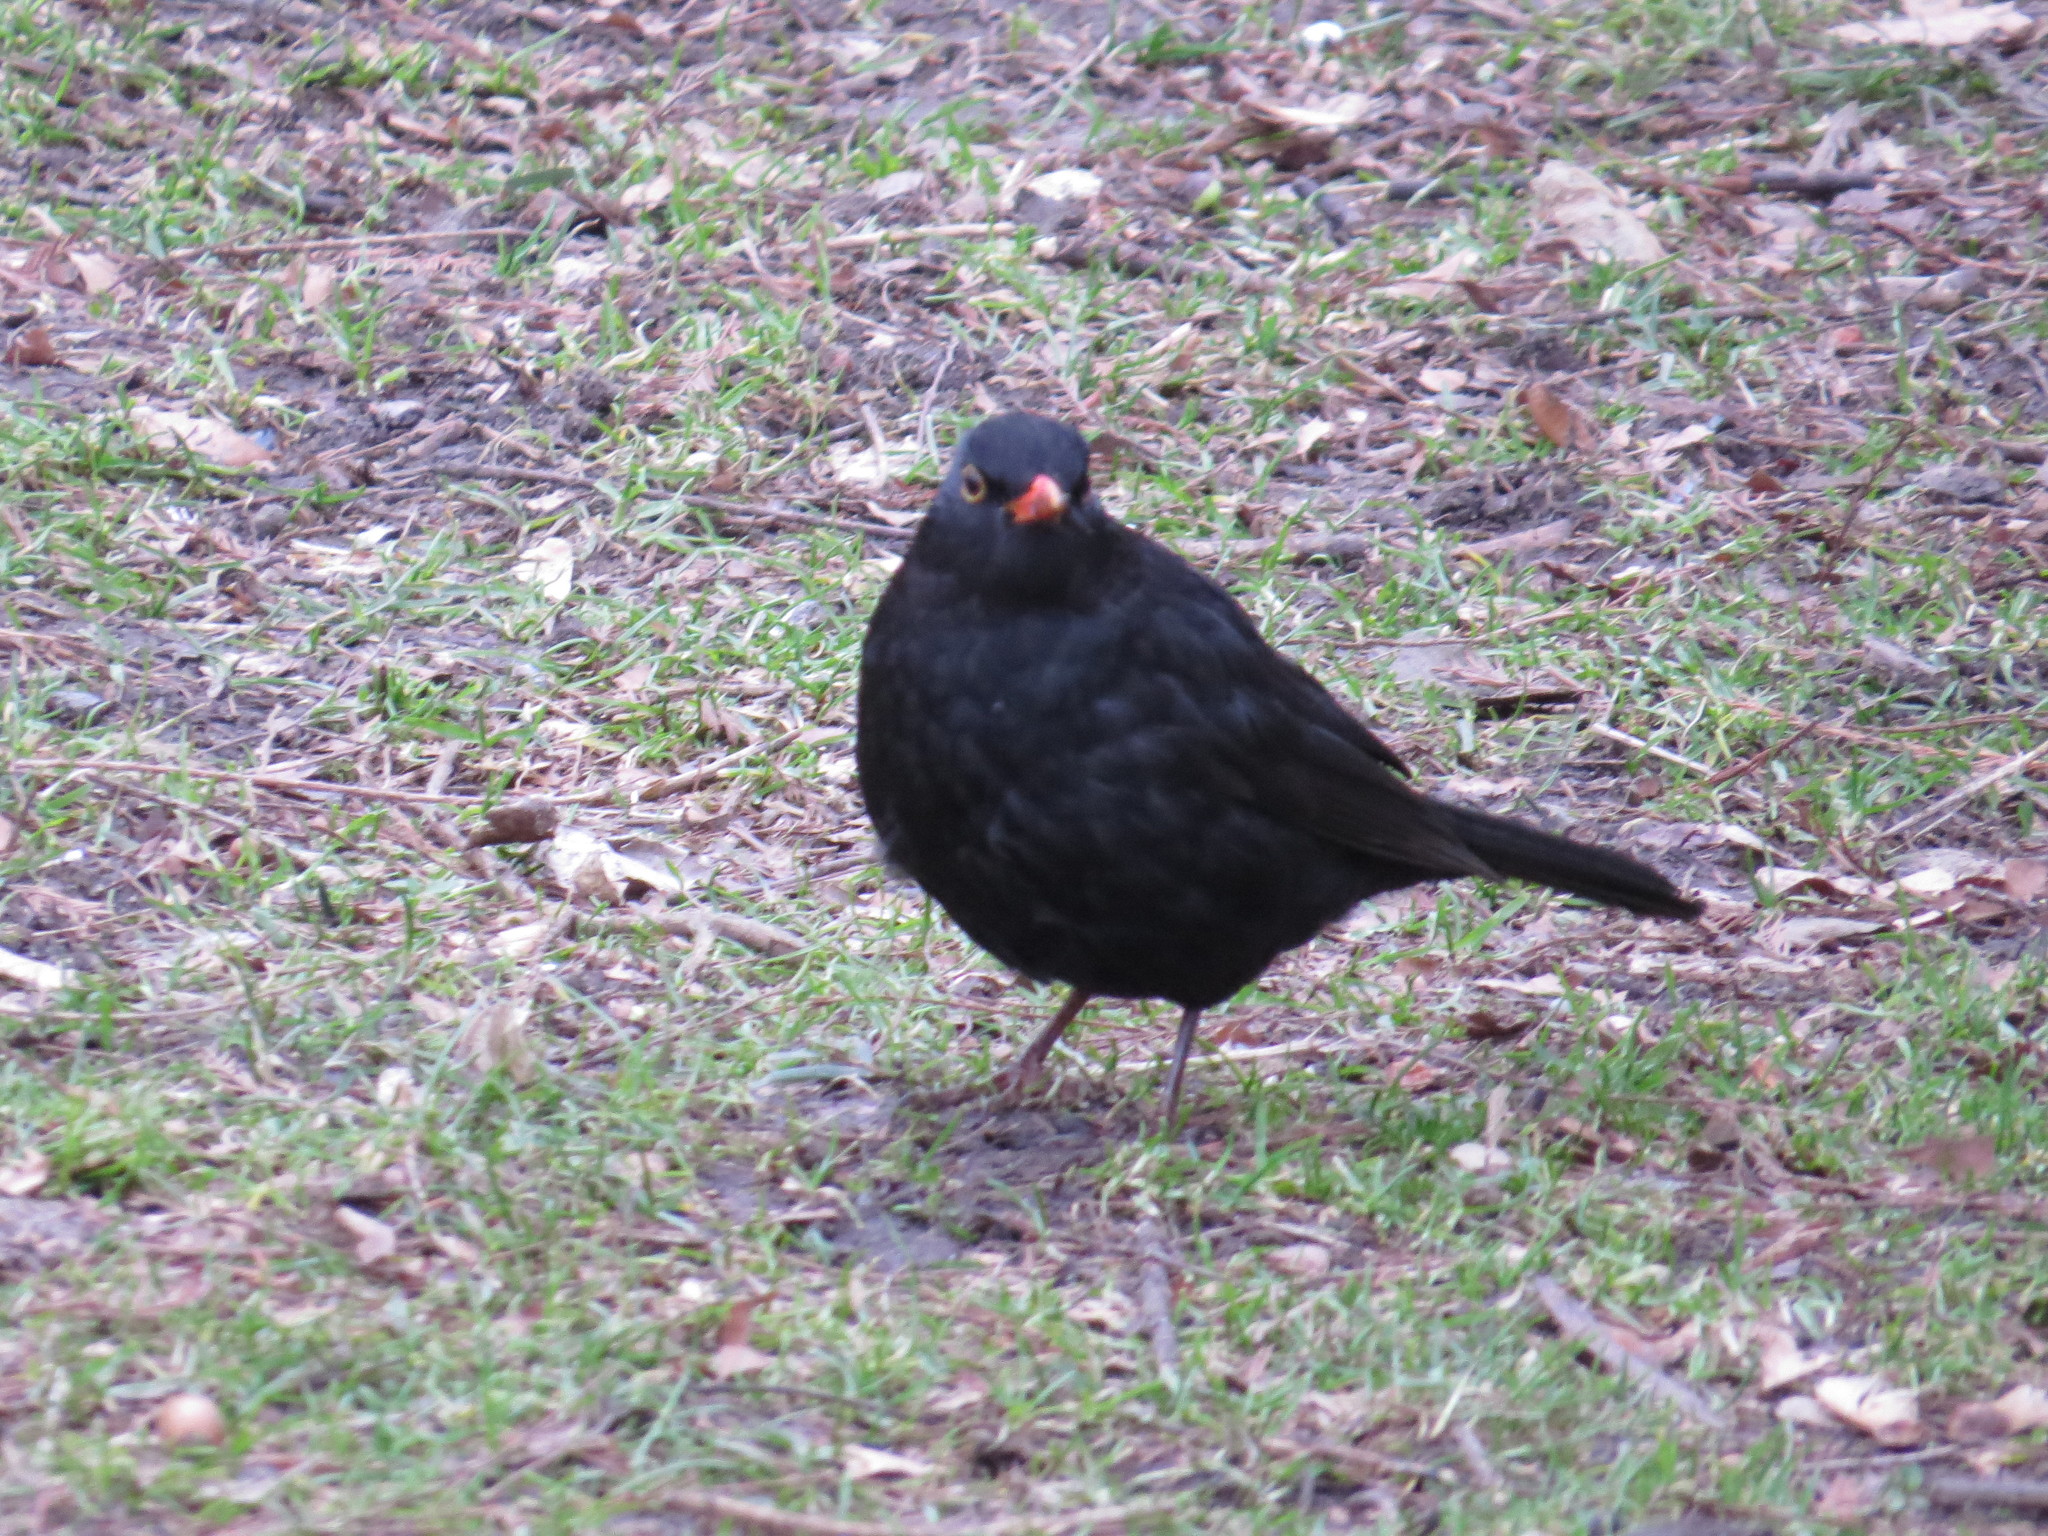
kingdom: Animalia
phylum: Chordata
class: Aves
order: Passeriformes
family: Turdidae
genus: Turdus
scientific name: Turdus merula
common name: Common blackbird
